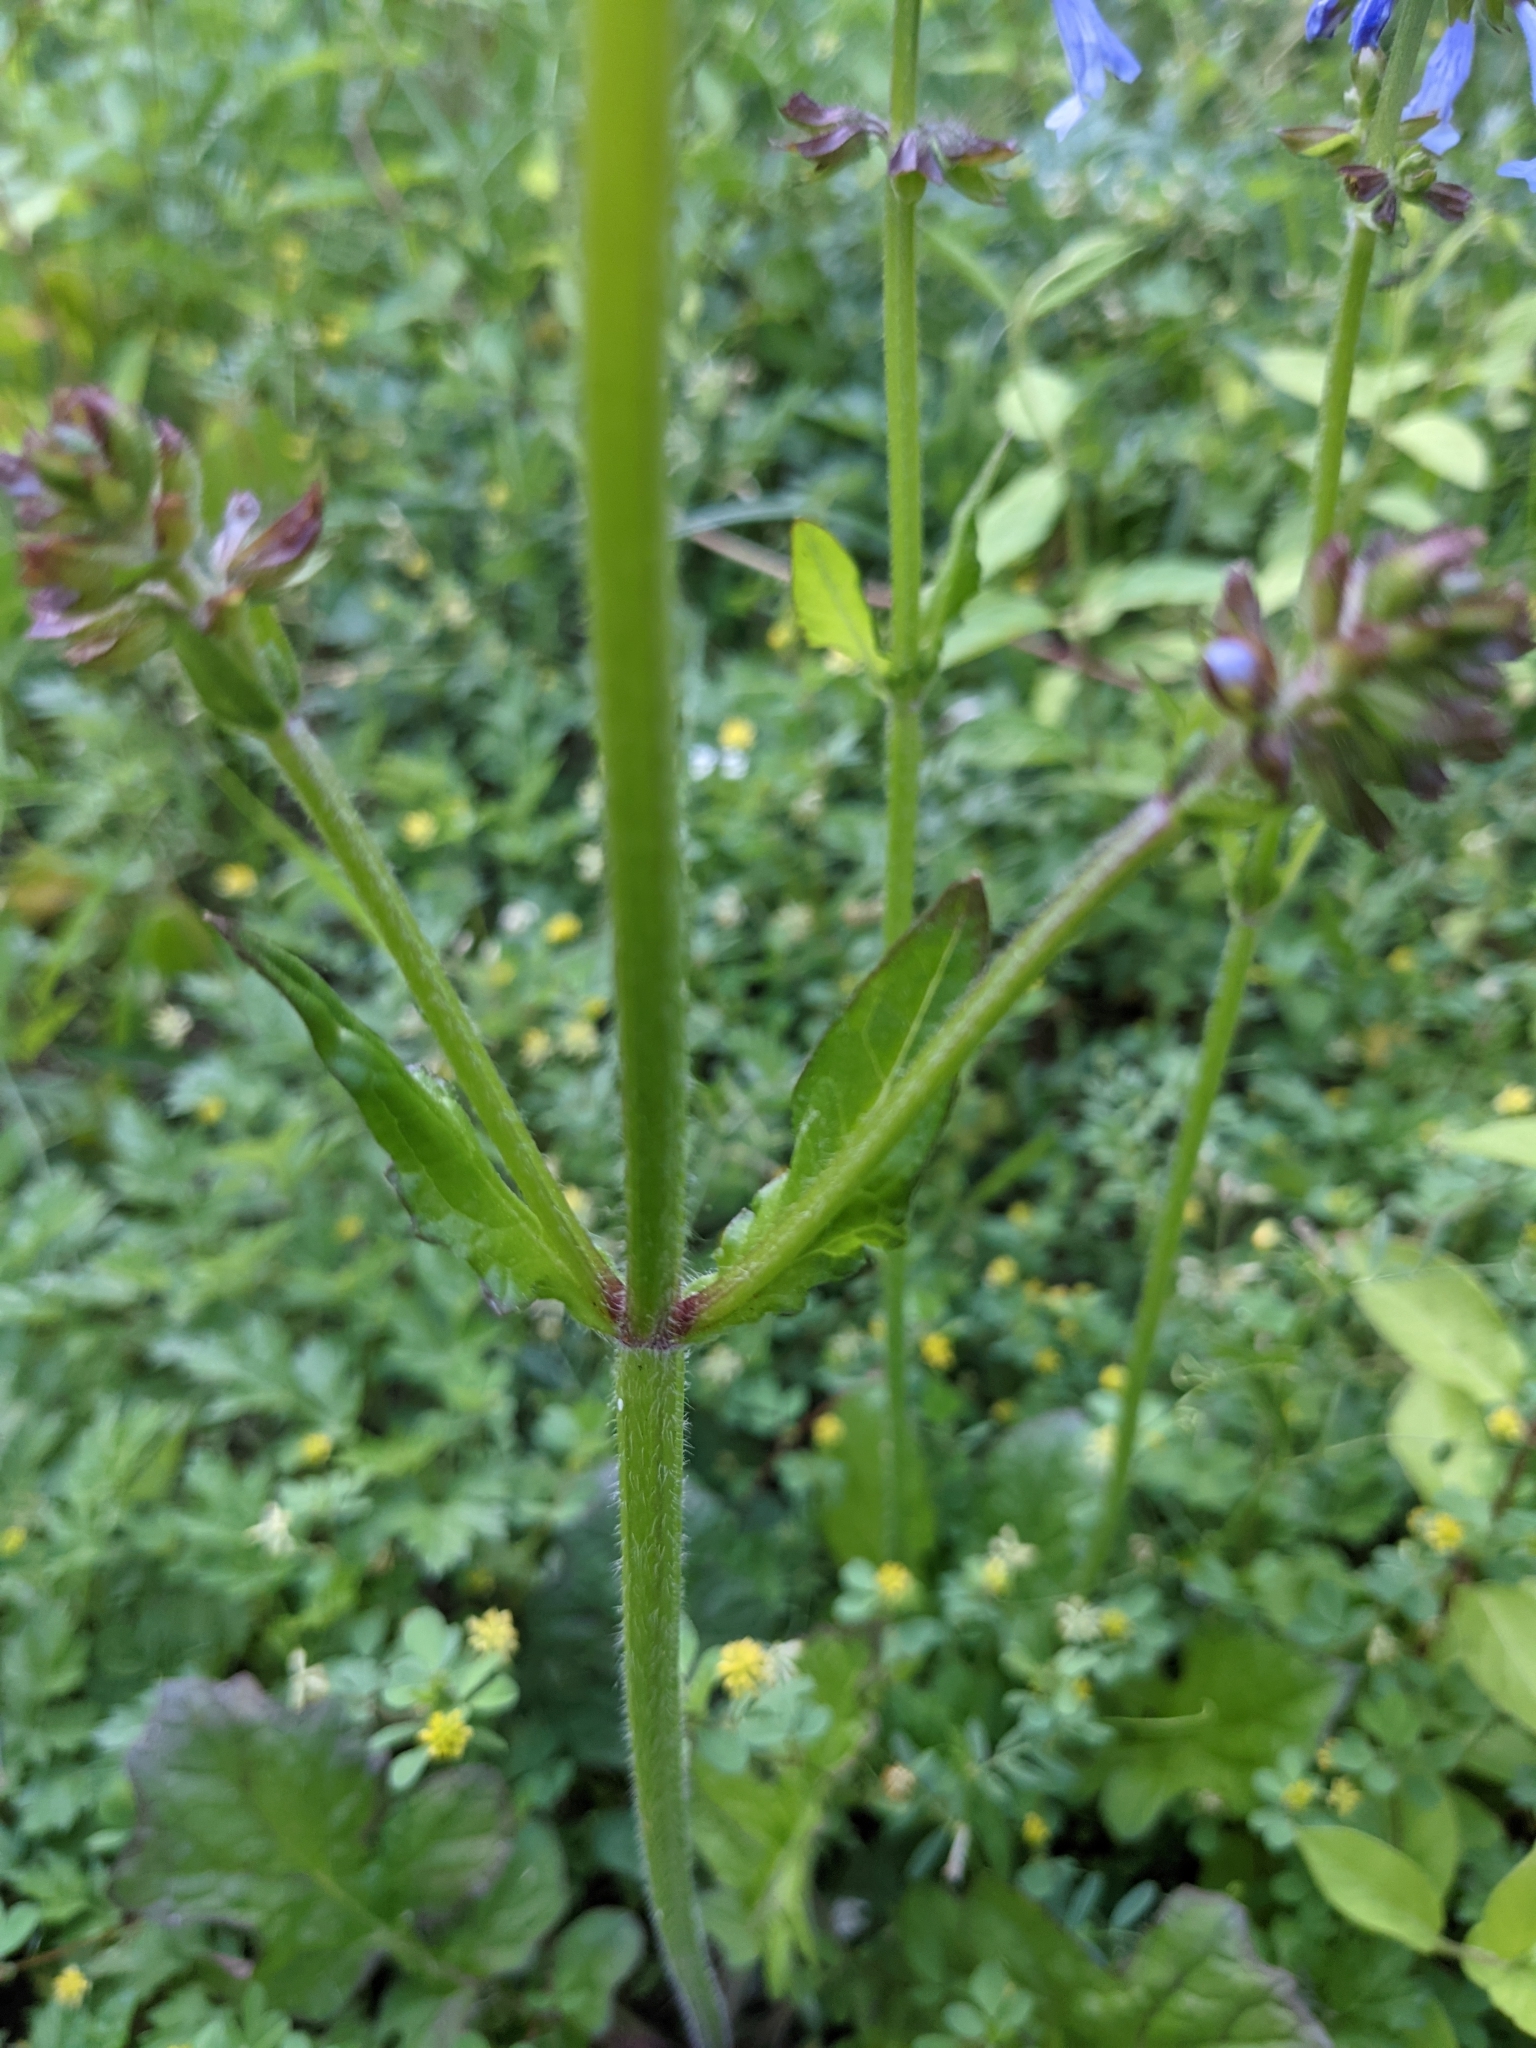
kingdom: Plantae
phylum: Tracheophyta
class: Magnoliopsida
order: Lamiales
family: Lamiaceae
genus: Salvia
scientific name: Salvia lyrata
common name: Cancerweed
